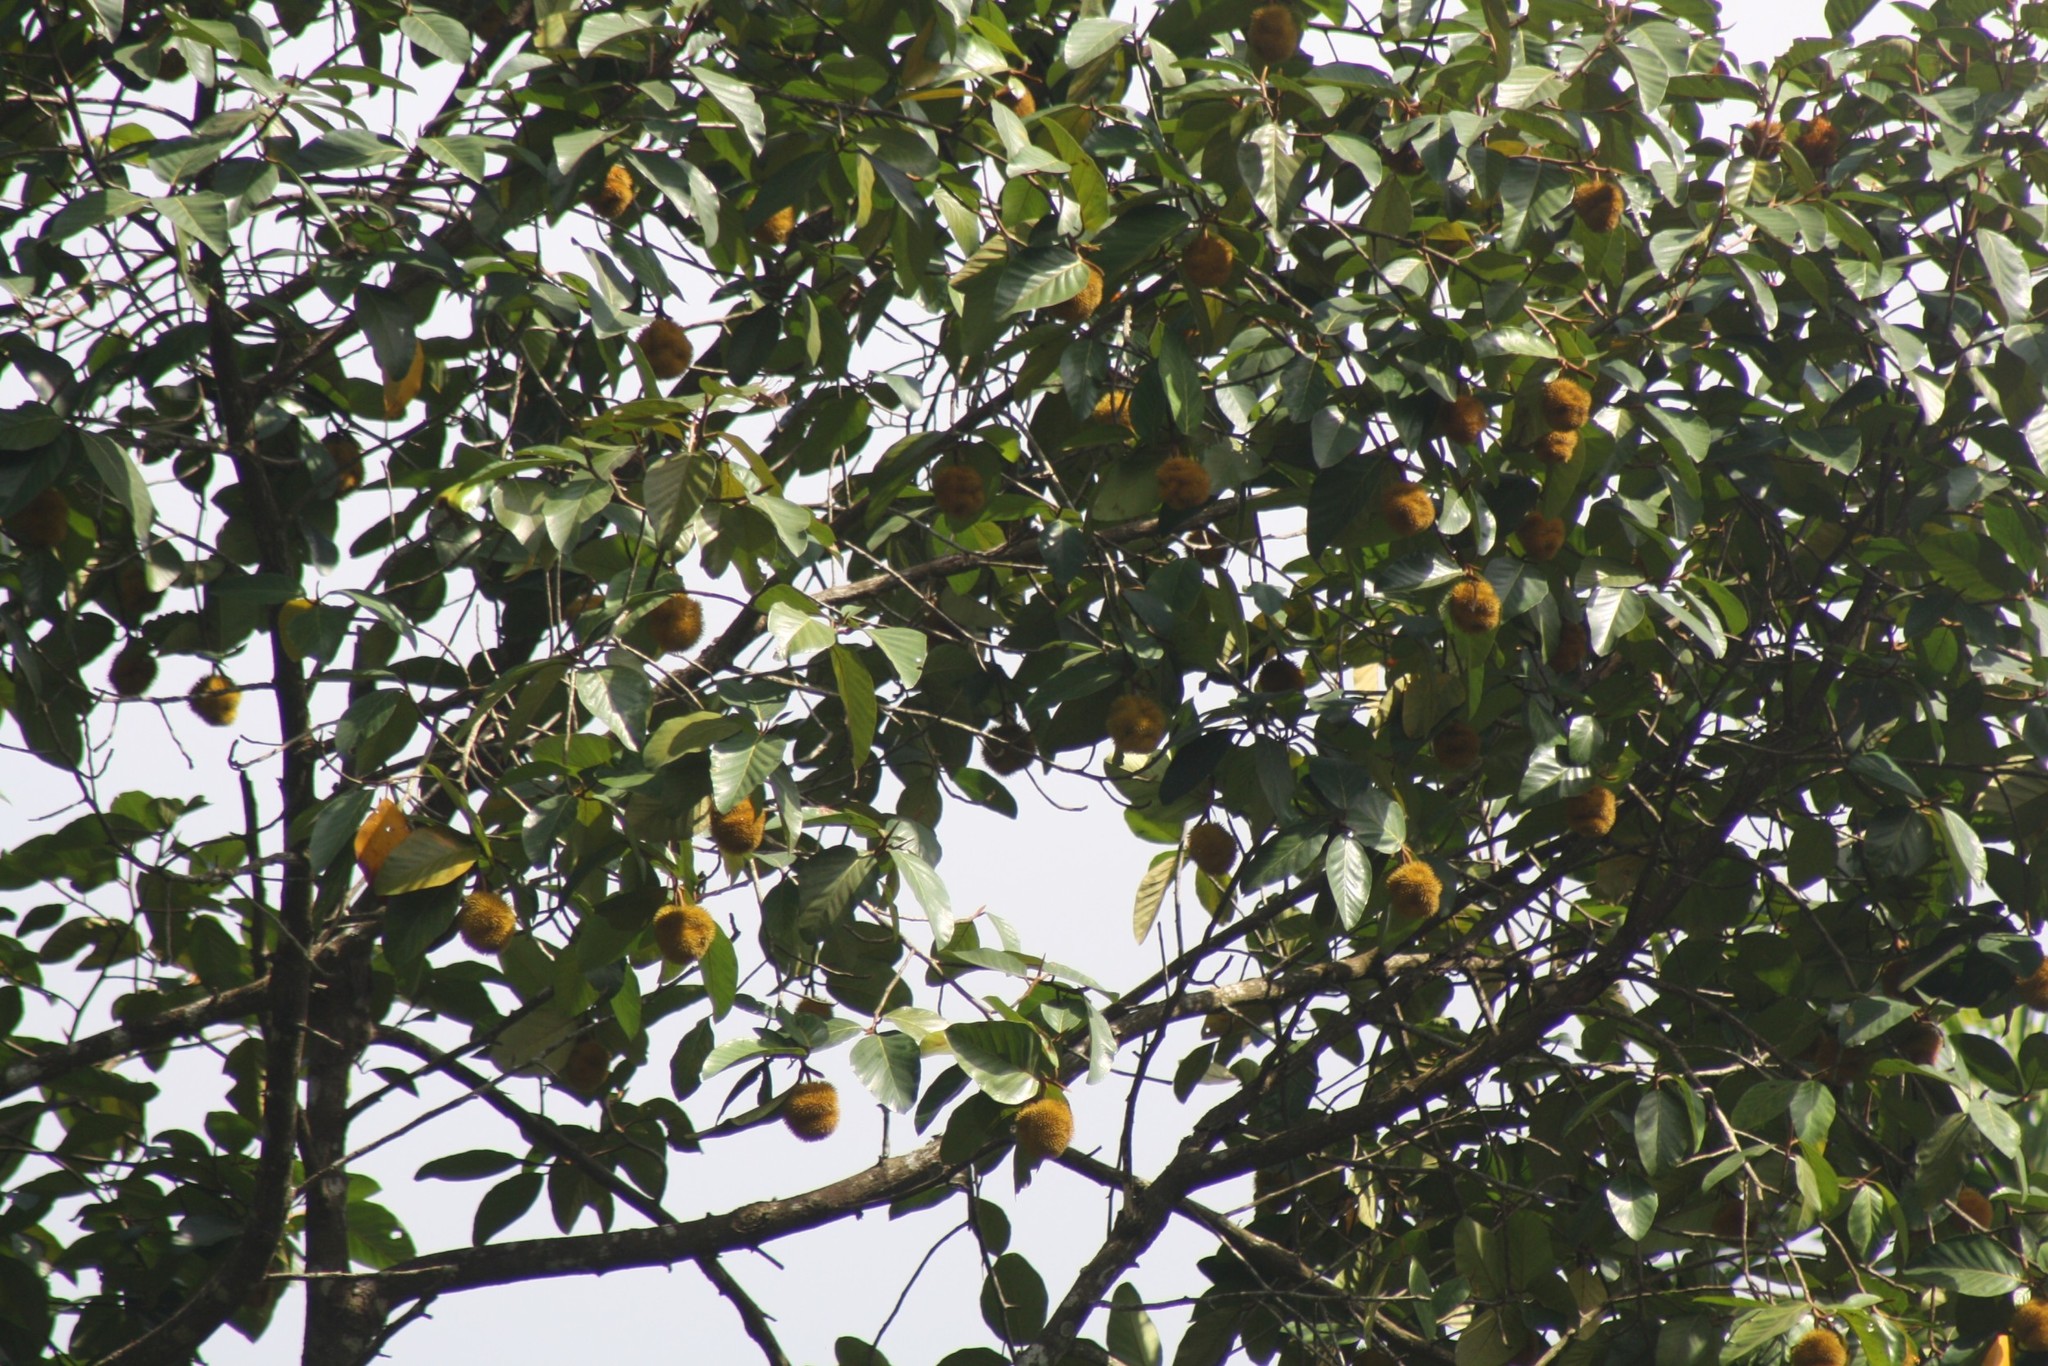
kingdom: Plantae
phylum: Tracheophyta
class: Magnoliopsida
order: Rosales
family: Moraceae
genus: Artocarpus
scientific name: Artocarpus hirsutus
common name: Hairy bread-fruit tree
